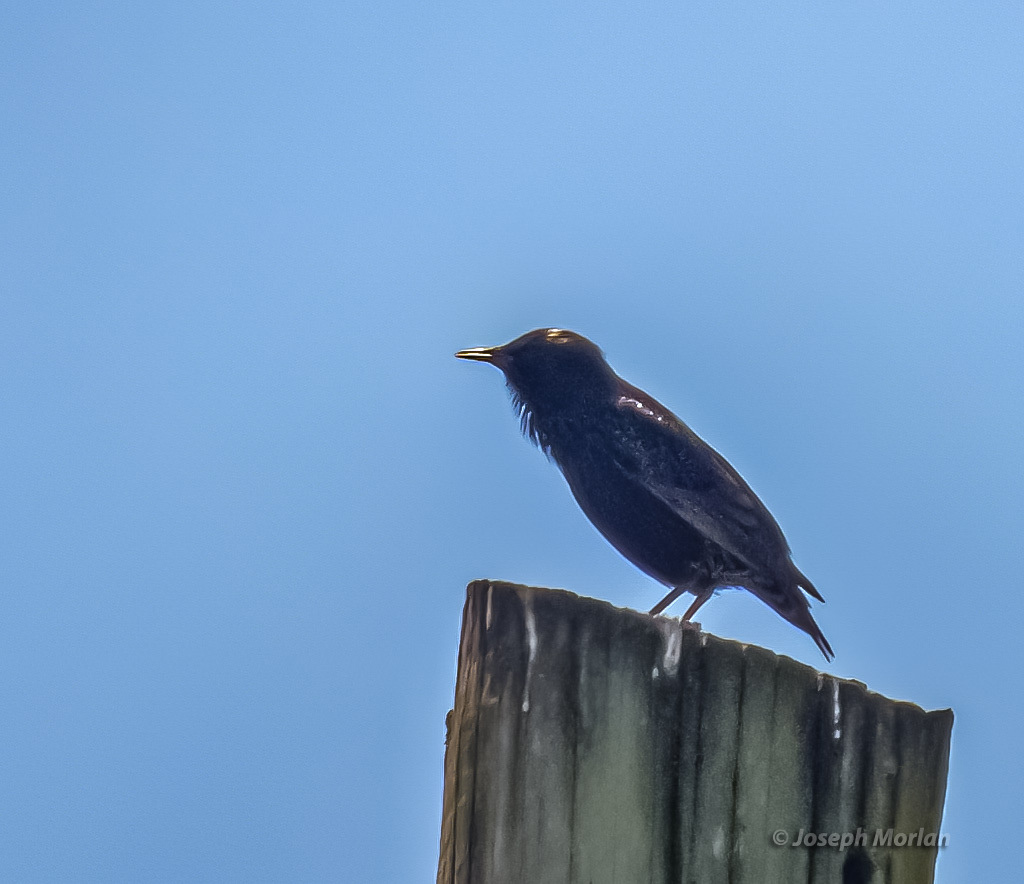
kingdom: Animalia
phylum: Chordata
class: Aves
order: Passeriformes
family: Sturnidae
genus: Sturnus
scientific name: Sturnus vulgaris
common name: Common starling
